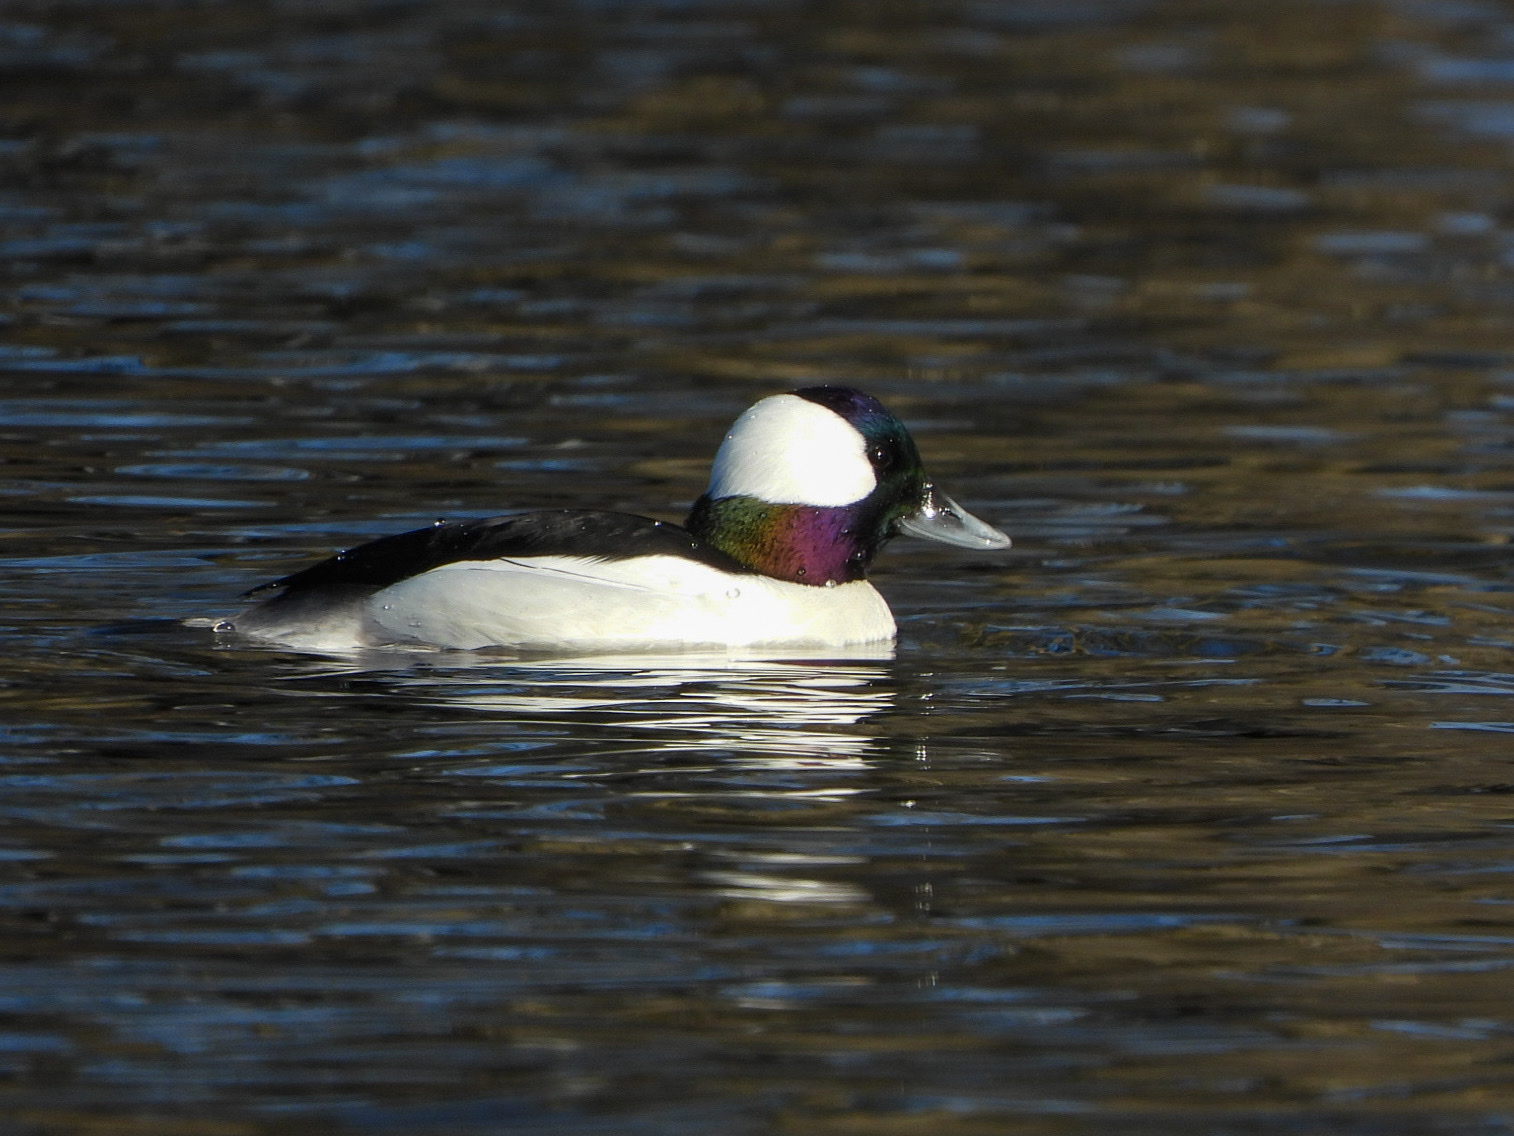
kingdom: Animalia
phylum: Chordata
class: Aves
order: Anseriformes
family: Anatidae
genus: Bucephala
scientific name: Bucephala albeola
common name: Bufflehead
